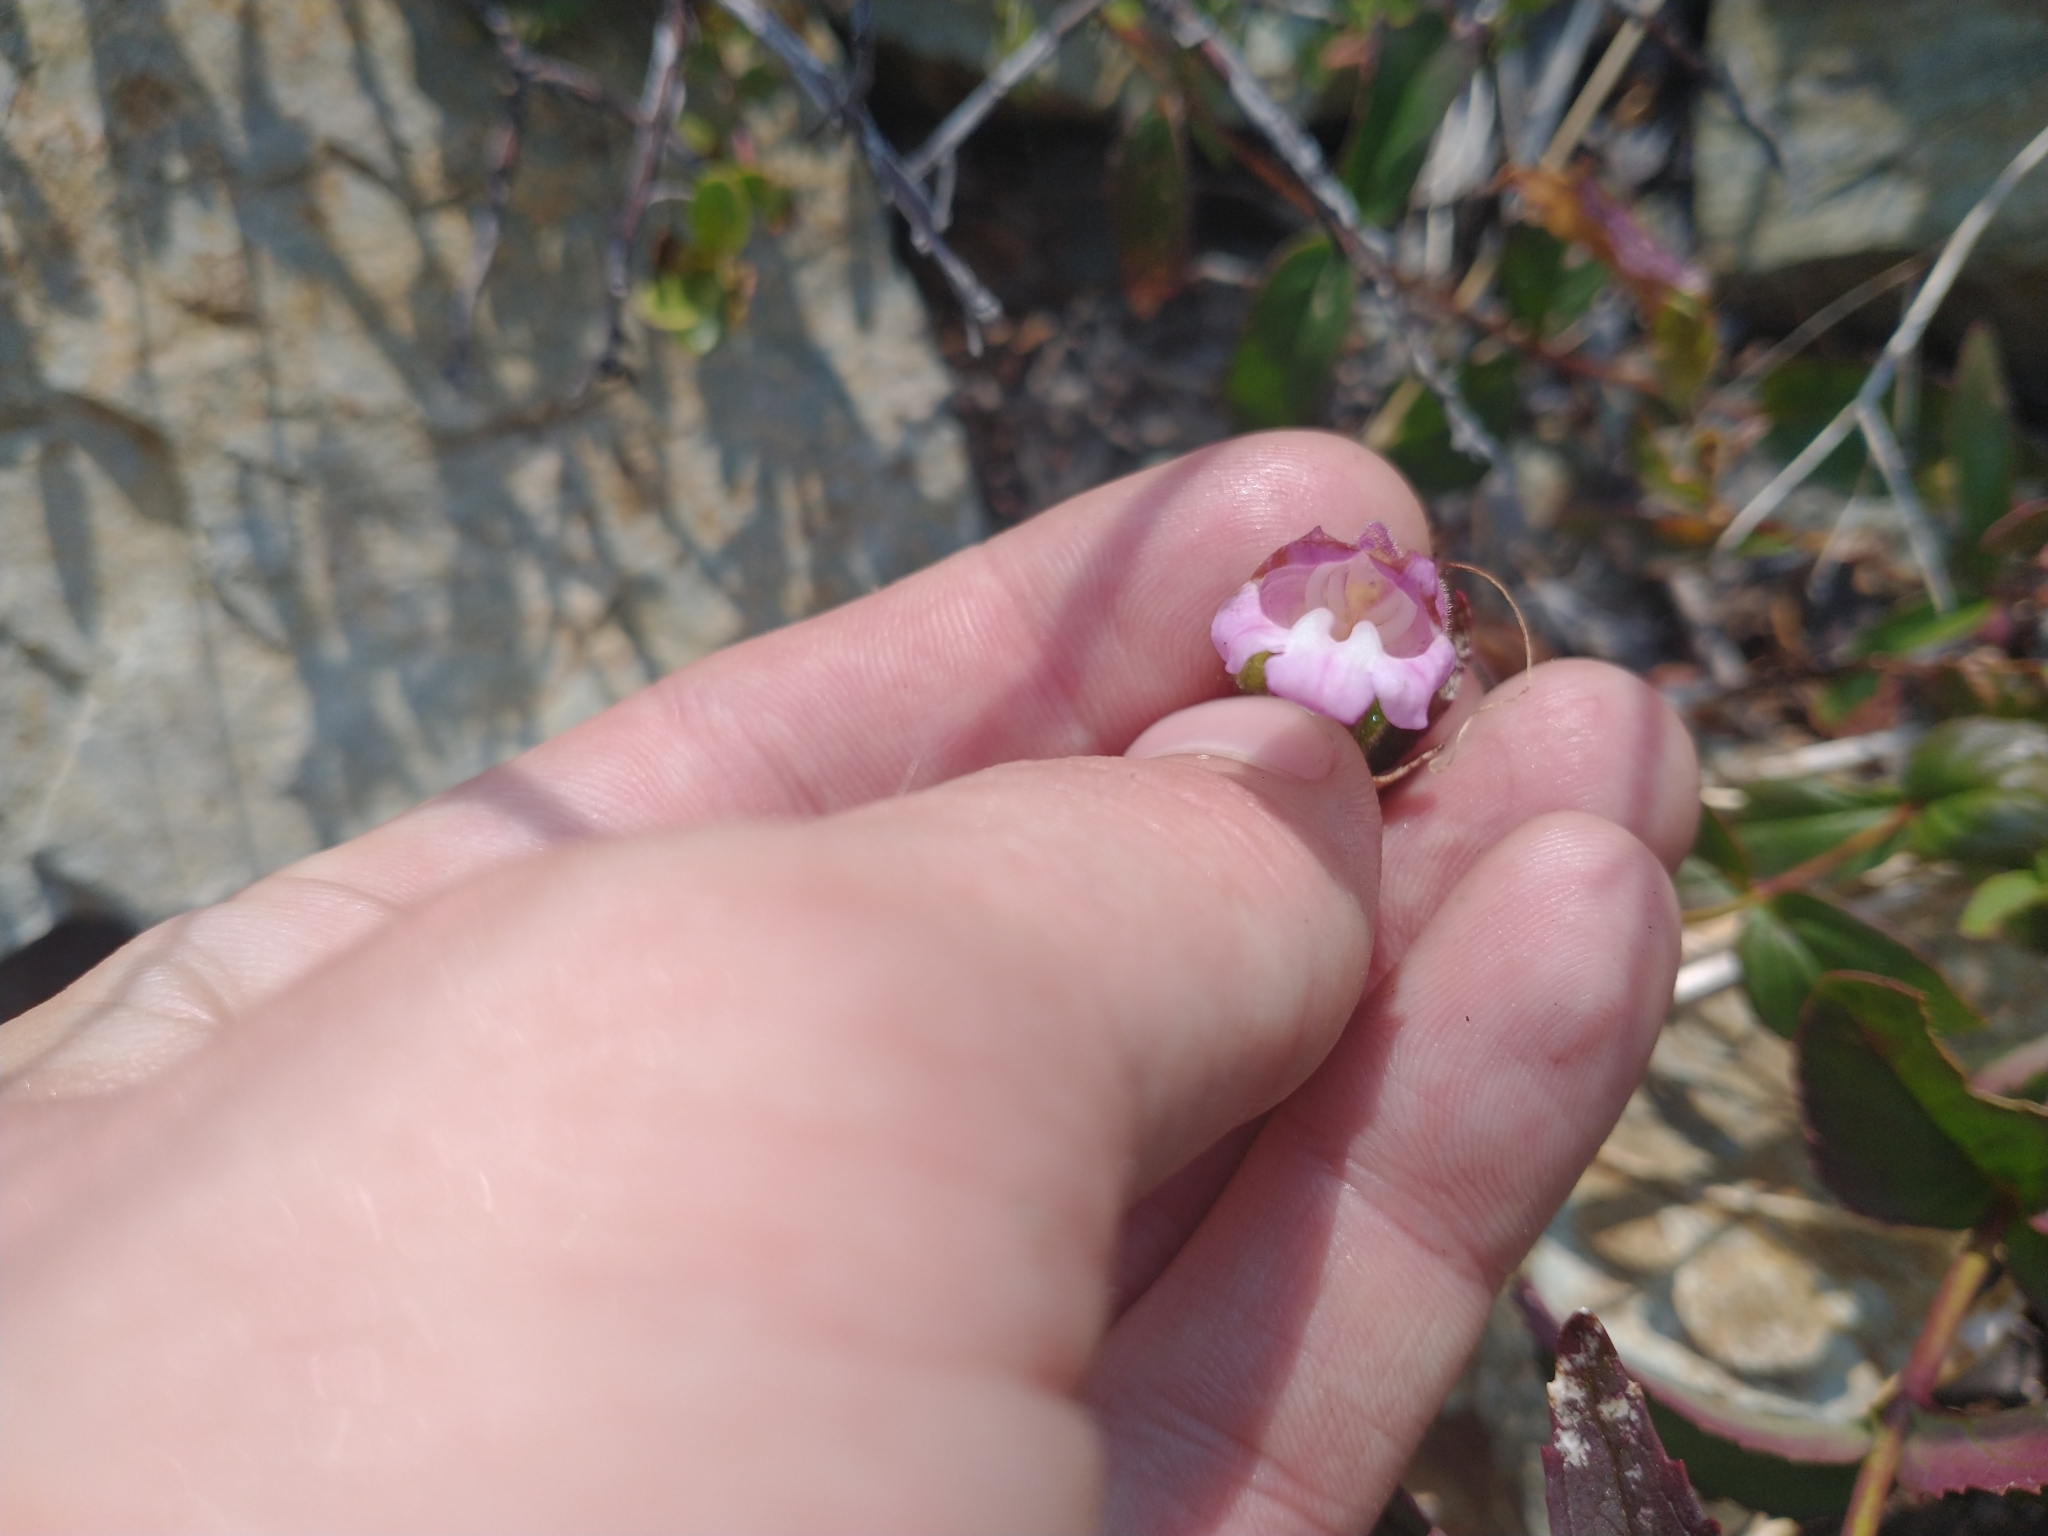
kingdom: Plantae
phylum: Tracheophyta
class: Magnoliopsida
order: Lamiales
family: Plantaginaceae
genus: Nothochelone
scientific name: Nothochelone nemorosa
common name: Woodland beardtongue
